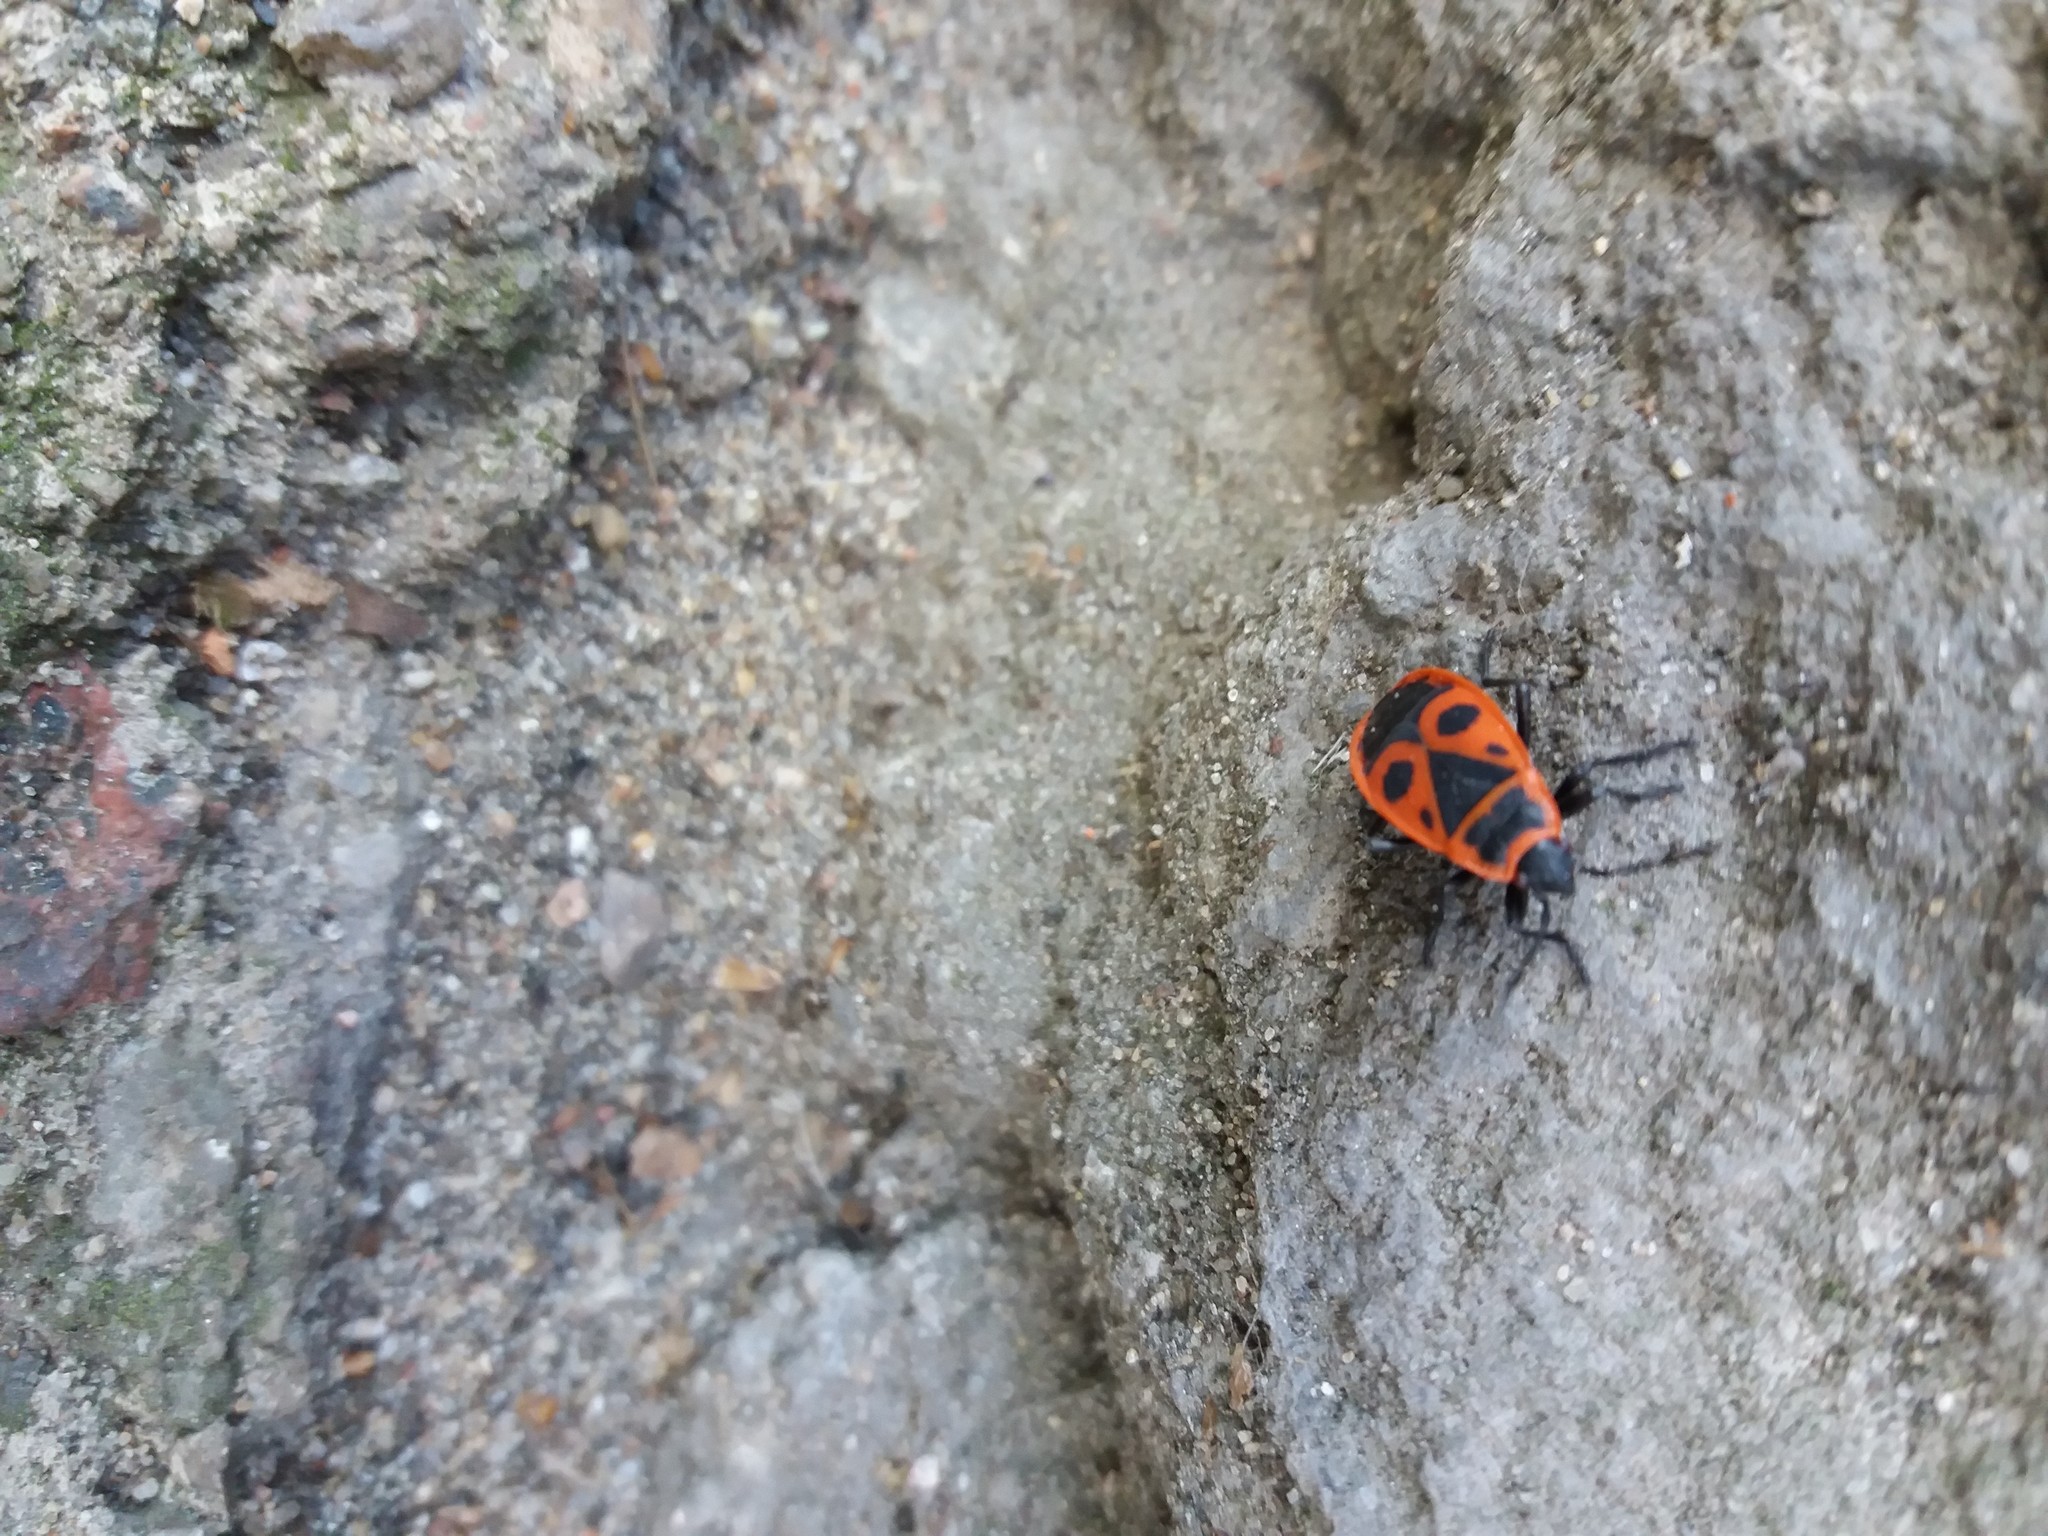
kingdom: Animalia
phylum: Arthropoda
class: Insecta
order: Hemiptera
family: Pyrrhocoridae
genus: Pyrrhocoris
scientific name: Pyrrhocoris apterus
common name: Firebug
